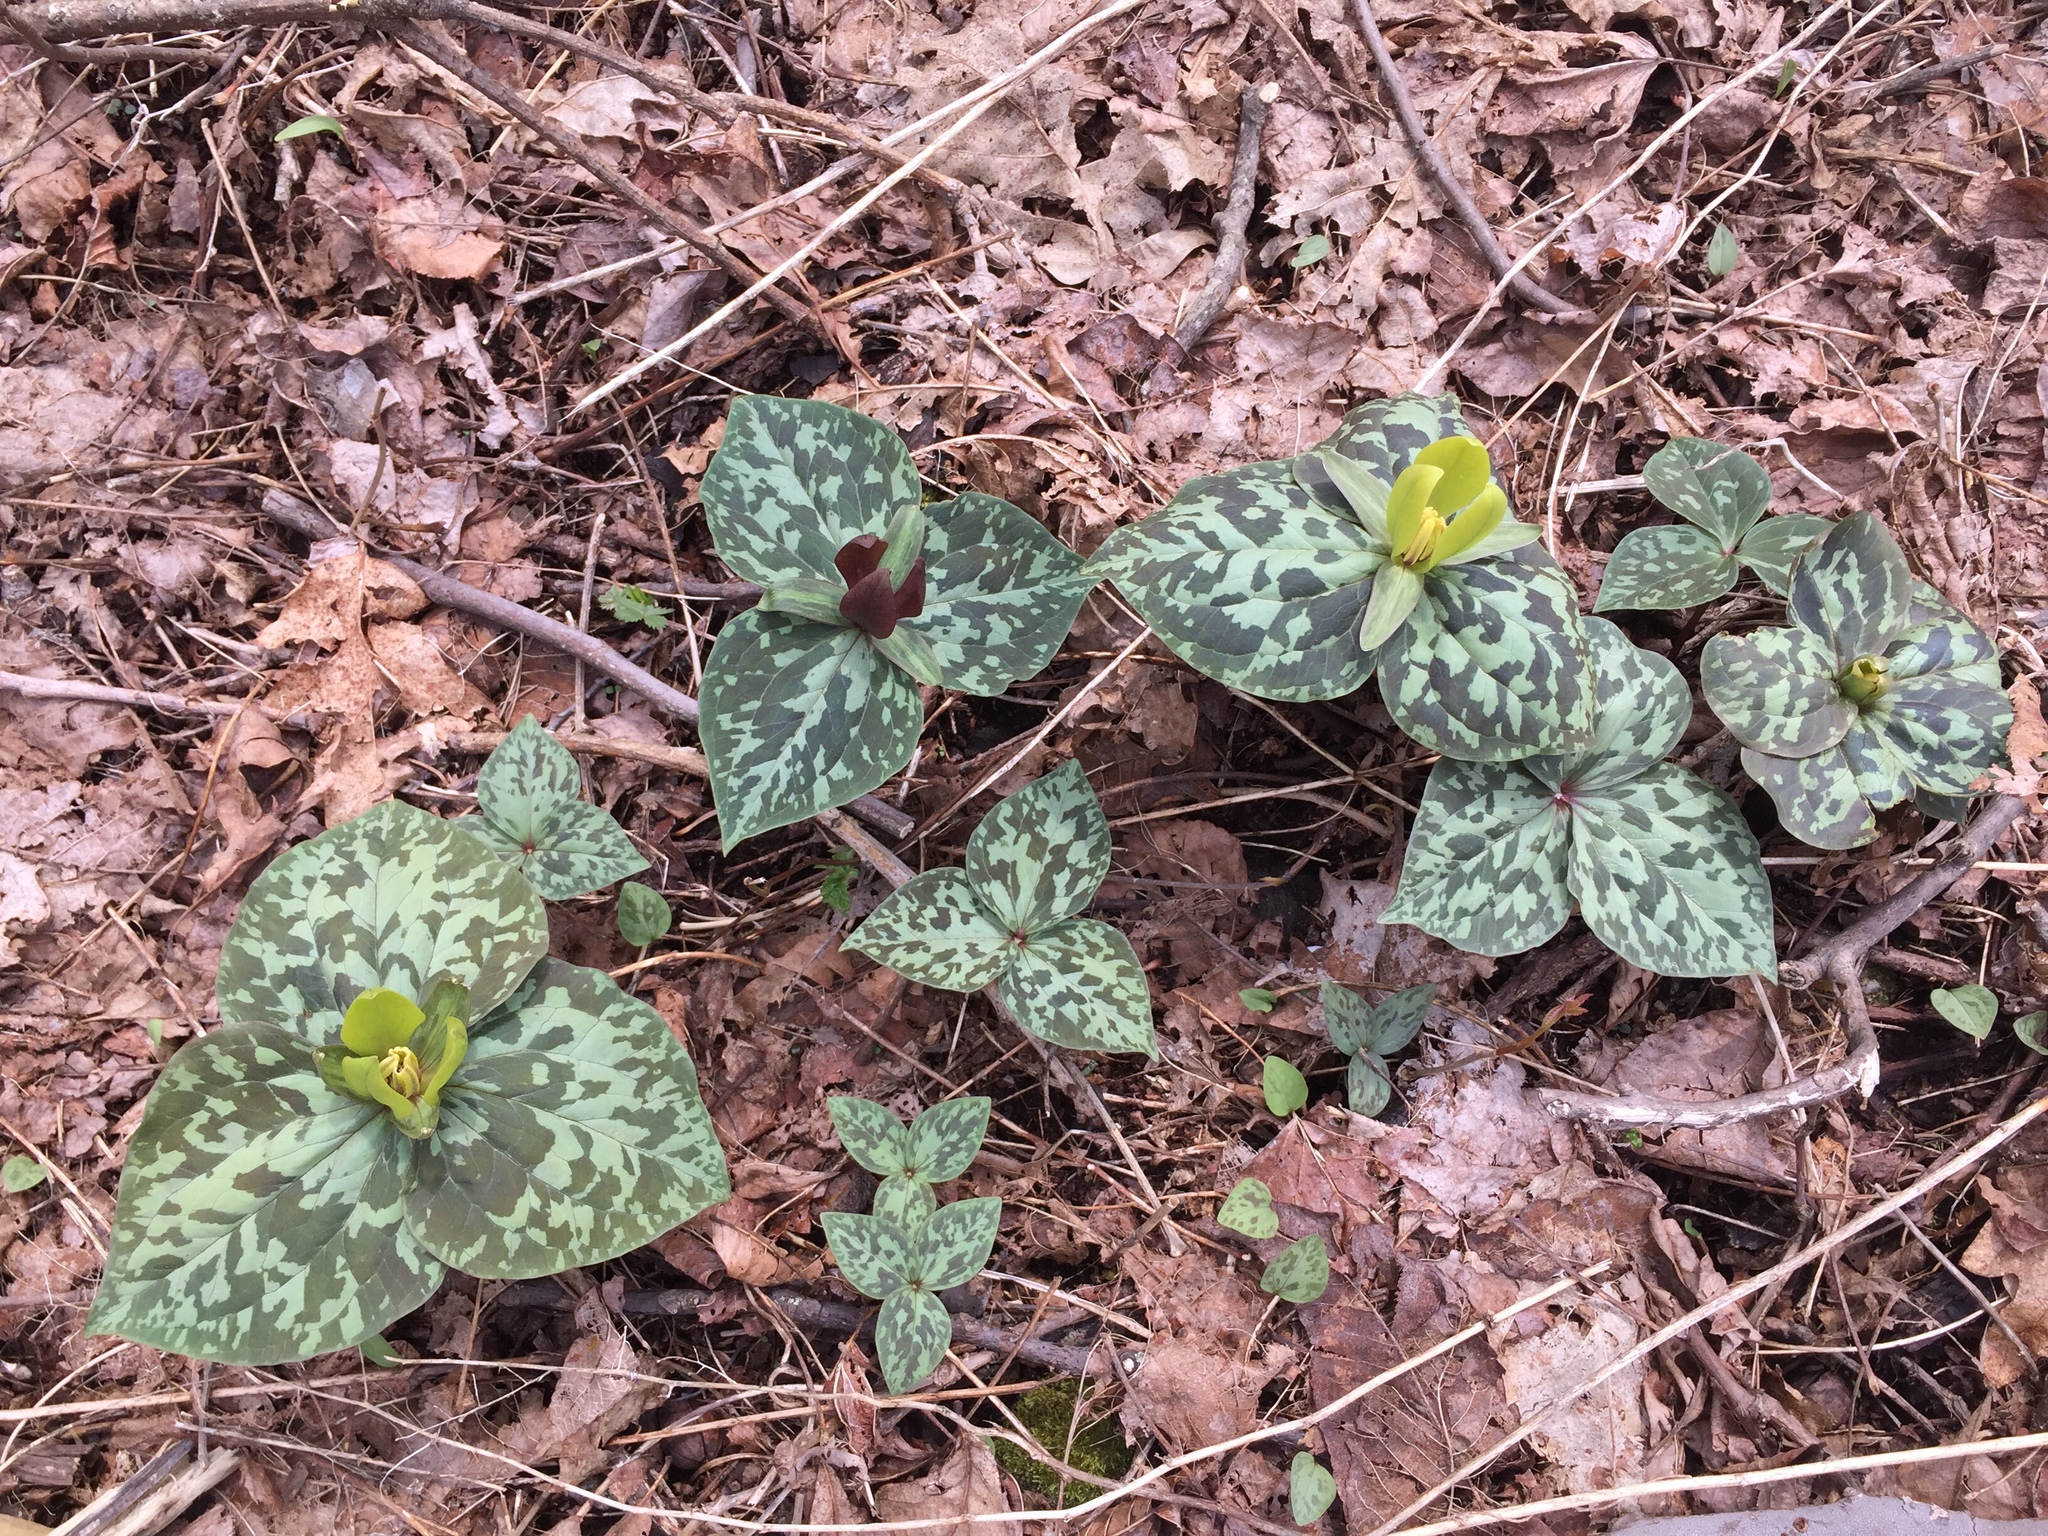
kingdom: Plantae
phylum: Tracheophyta
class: Liliopsida
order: Liliales
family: Melanthiaceae
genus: Trillium
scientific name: Trillium cuneatum
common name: Cuneate trillium
